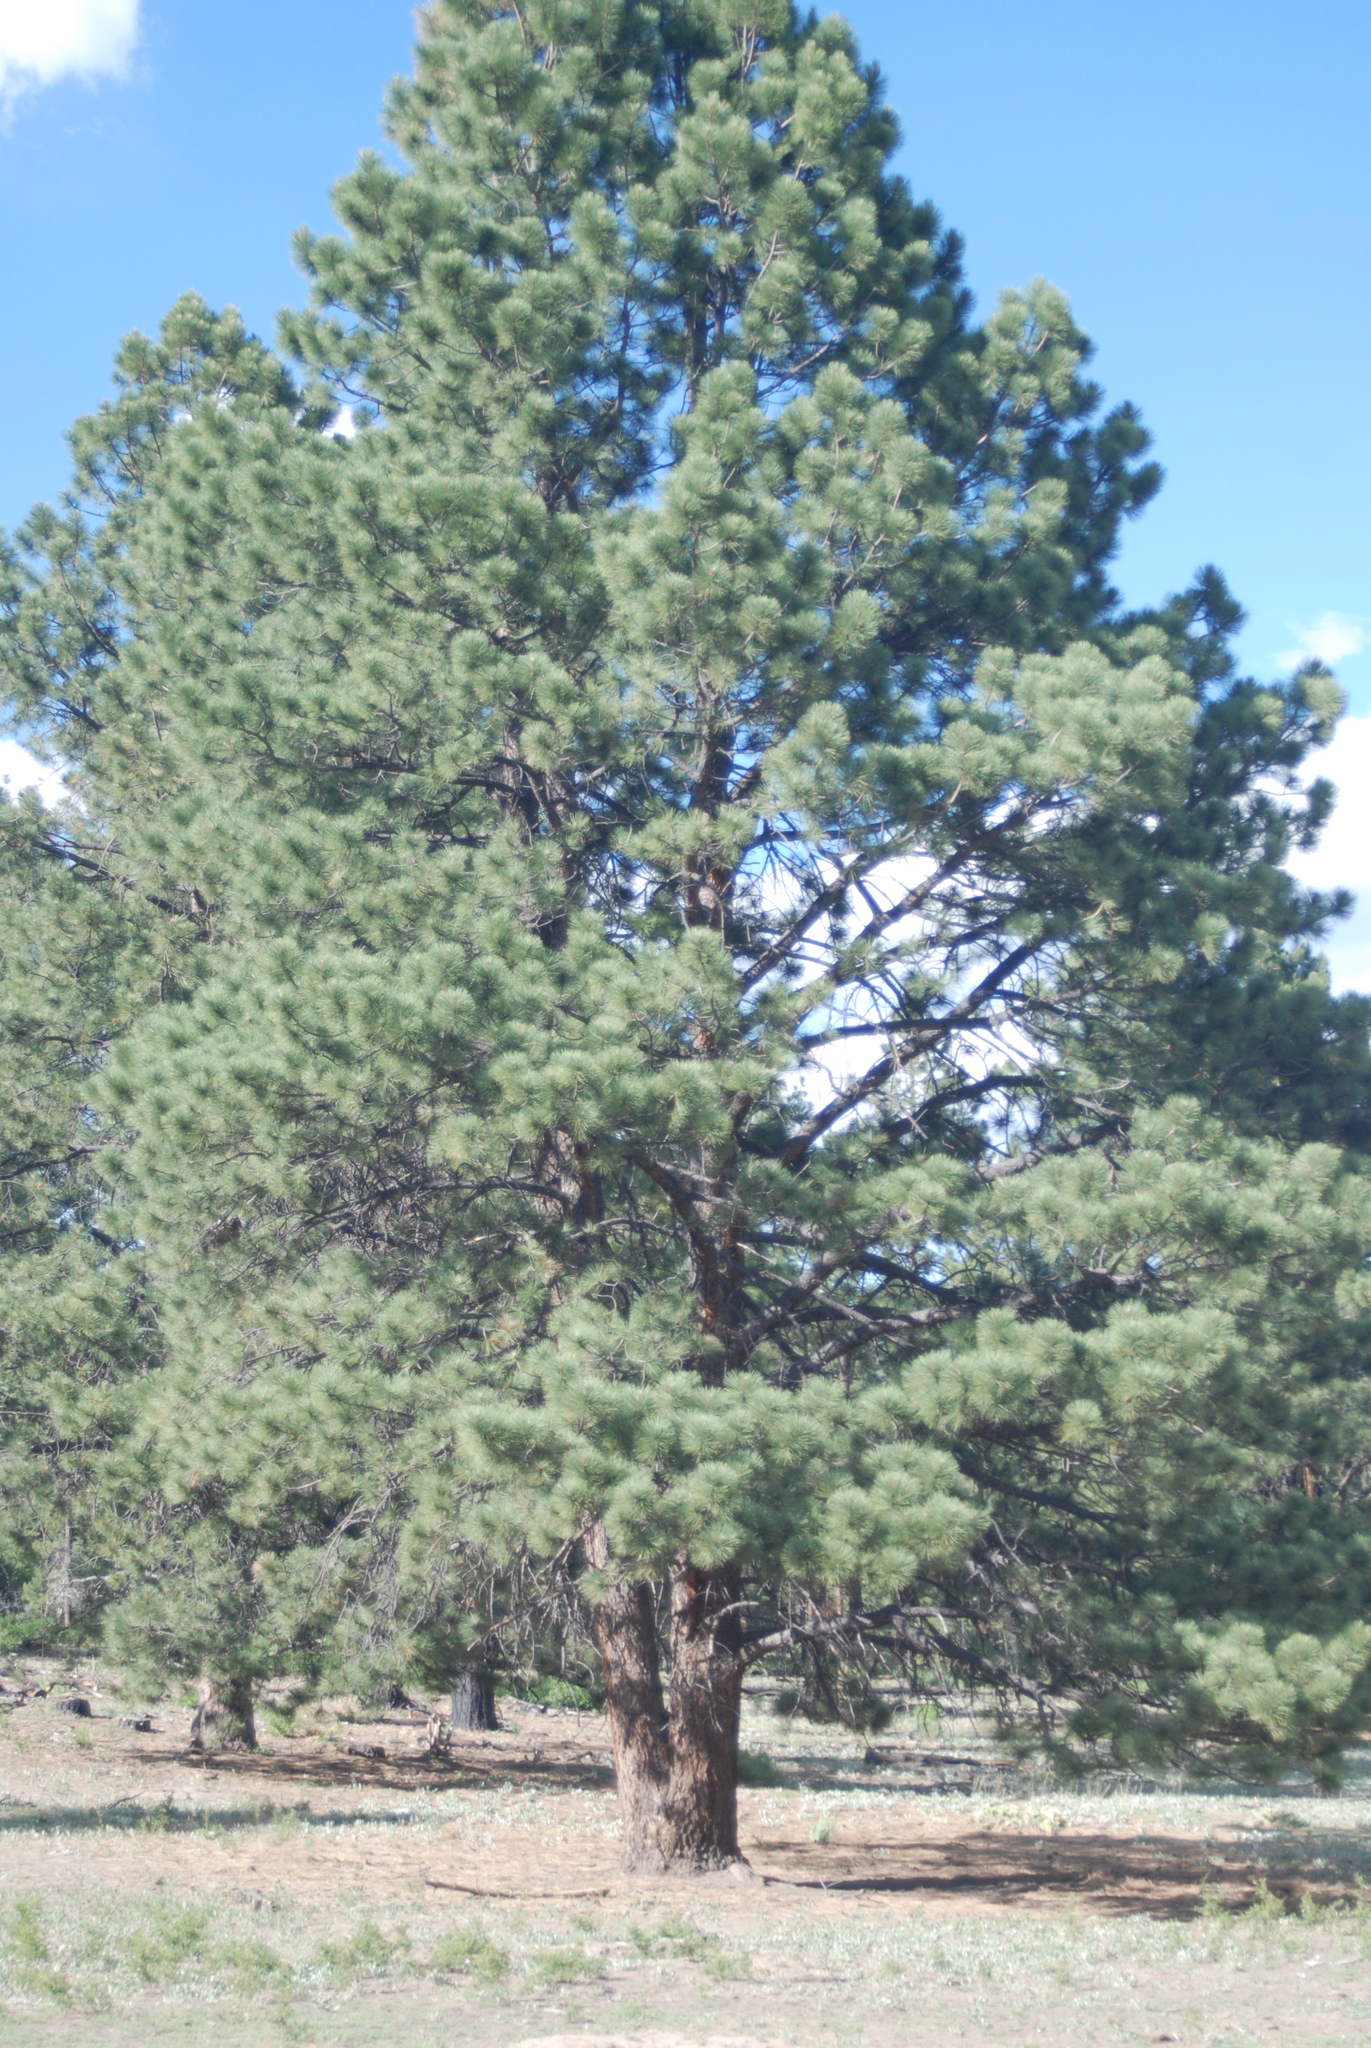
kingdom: Plantae
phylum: Tracheophyta
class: Pinopsida
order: Pinales
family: Pinaceae
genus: Pinus
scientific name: Pinus ponderosa
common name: Western yellow-pine
